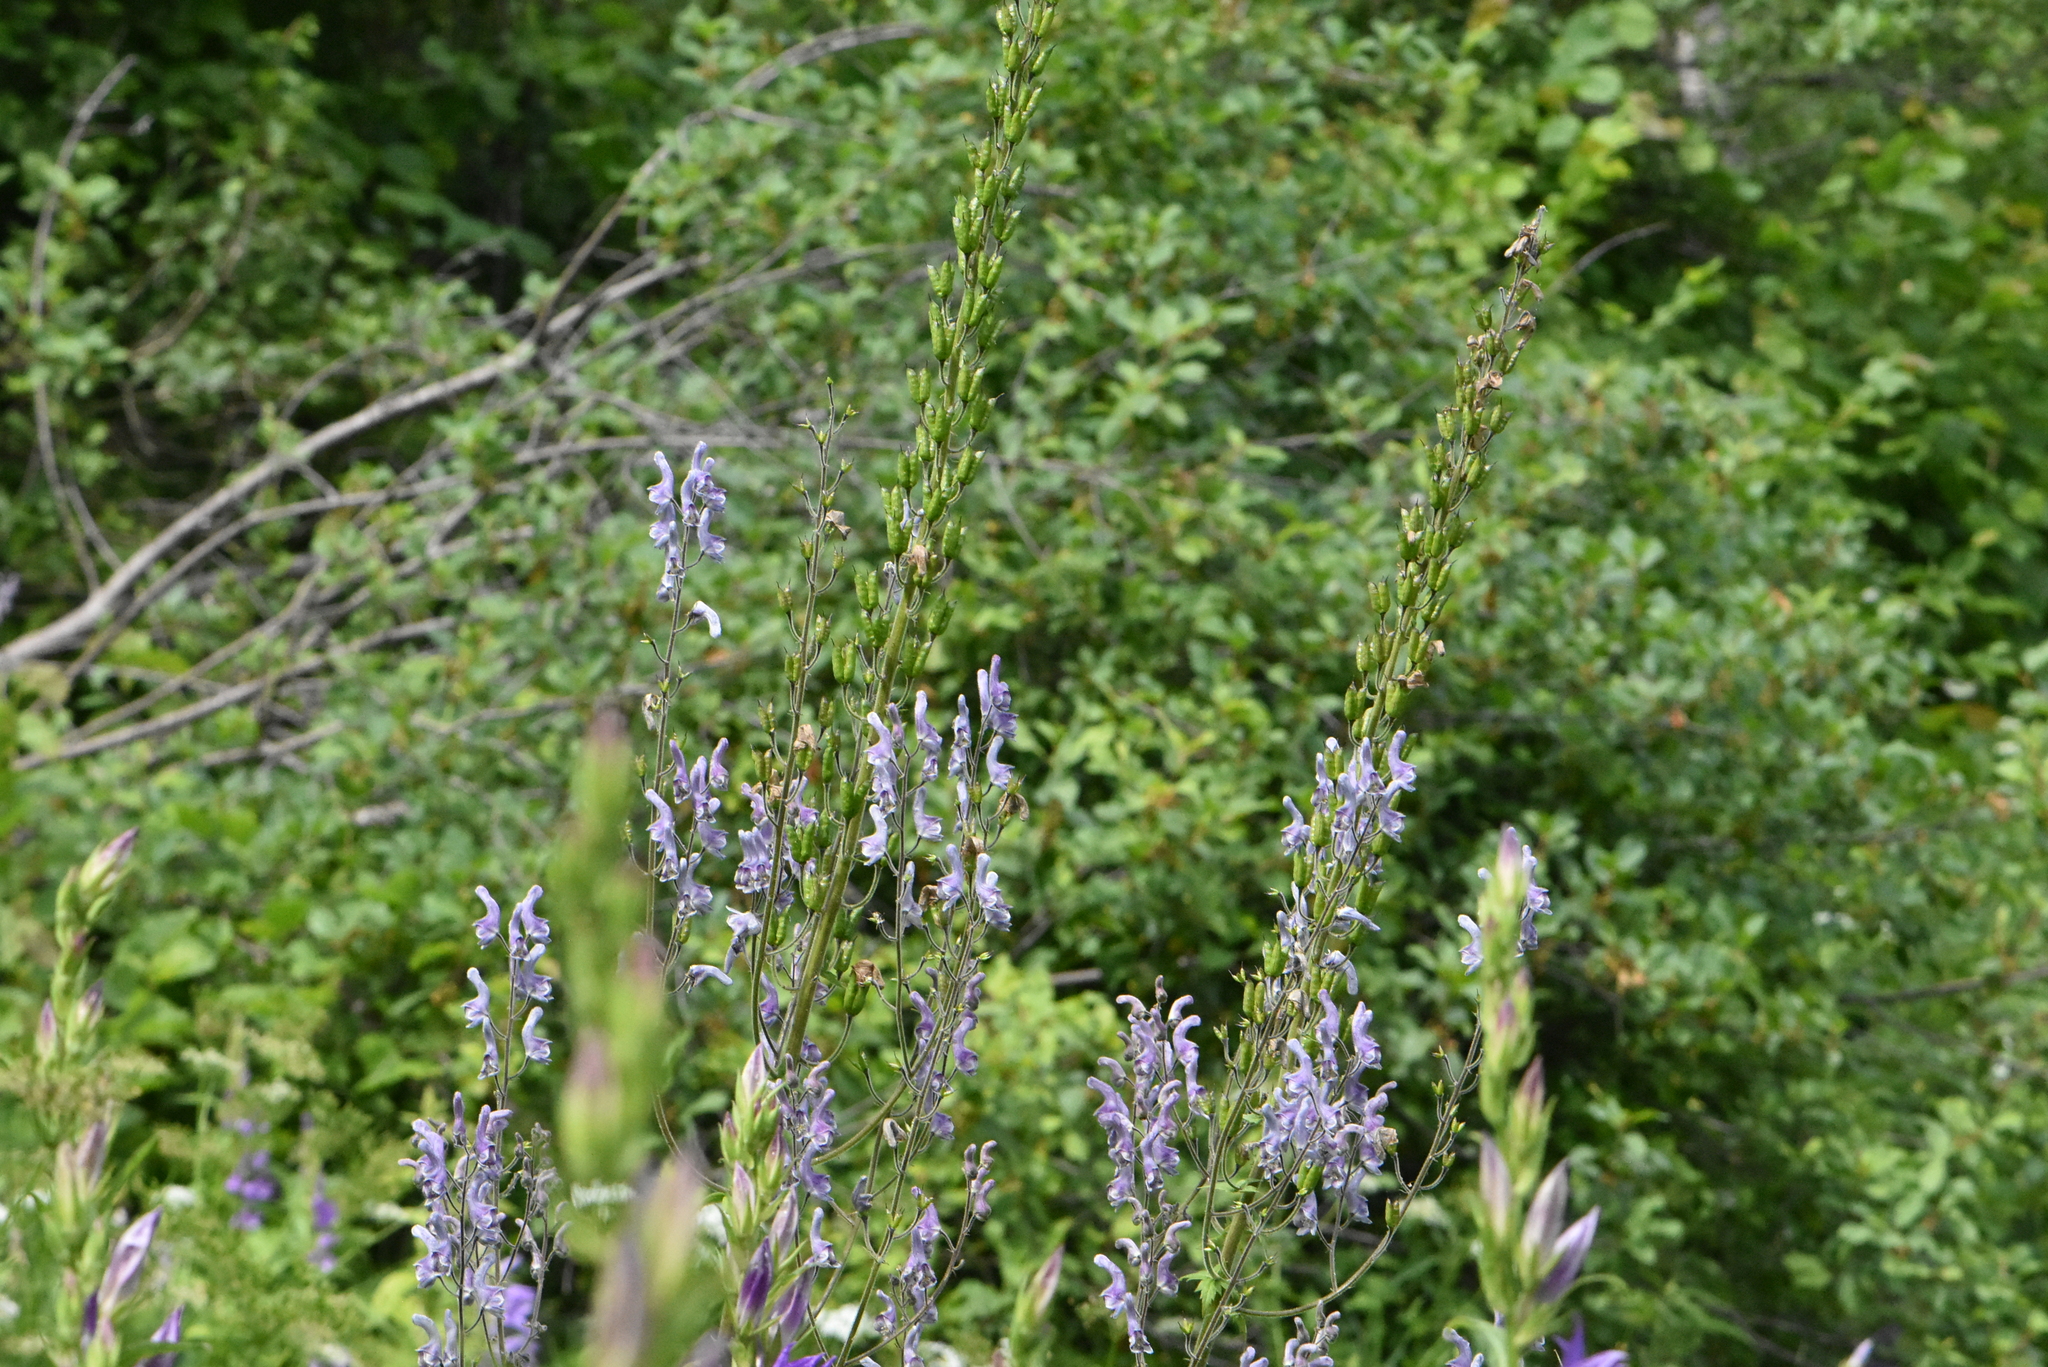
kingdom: Plantae
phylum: Tracheophyta
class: Magnoliopsida
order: Ranunculales
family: Ranunculaceae
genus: Aconitum
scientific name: Aconitum septentrionale
